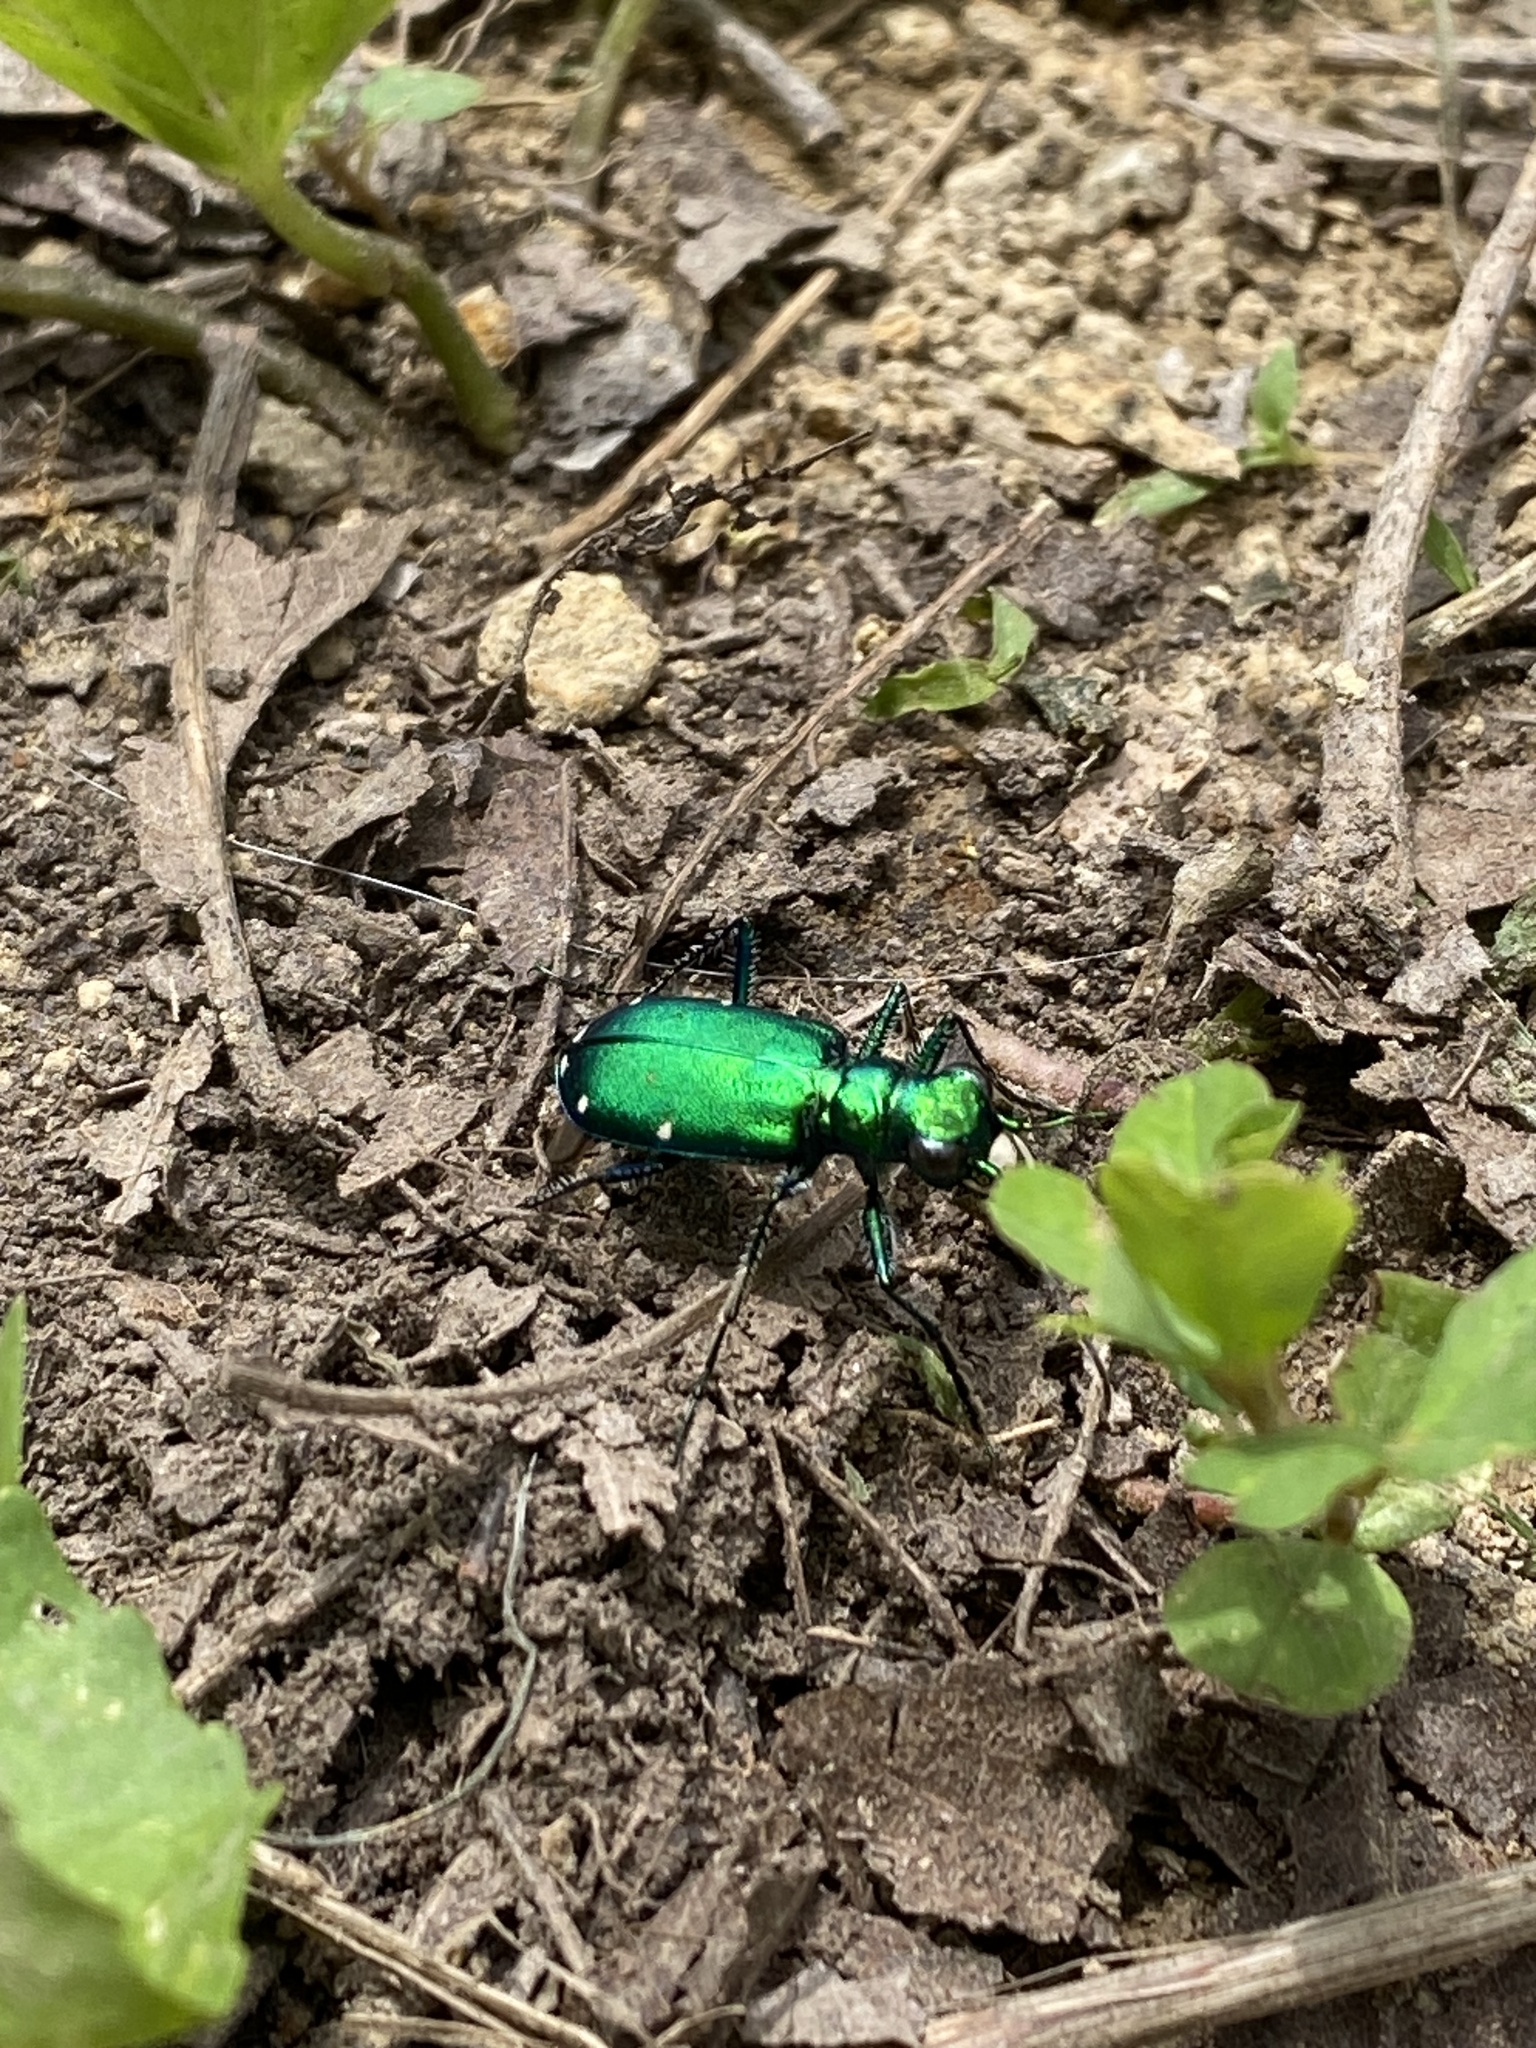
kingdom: Animalia
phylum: Arthropoda
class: Insecta
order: Coleoptera
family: Carabidae
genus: Cicindela
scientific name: Cicindela sexguttata
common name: Six-spotted tiger beetle
